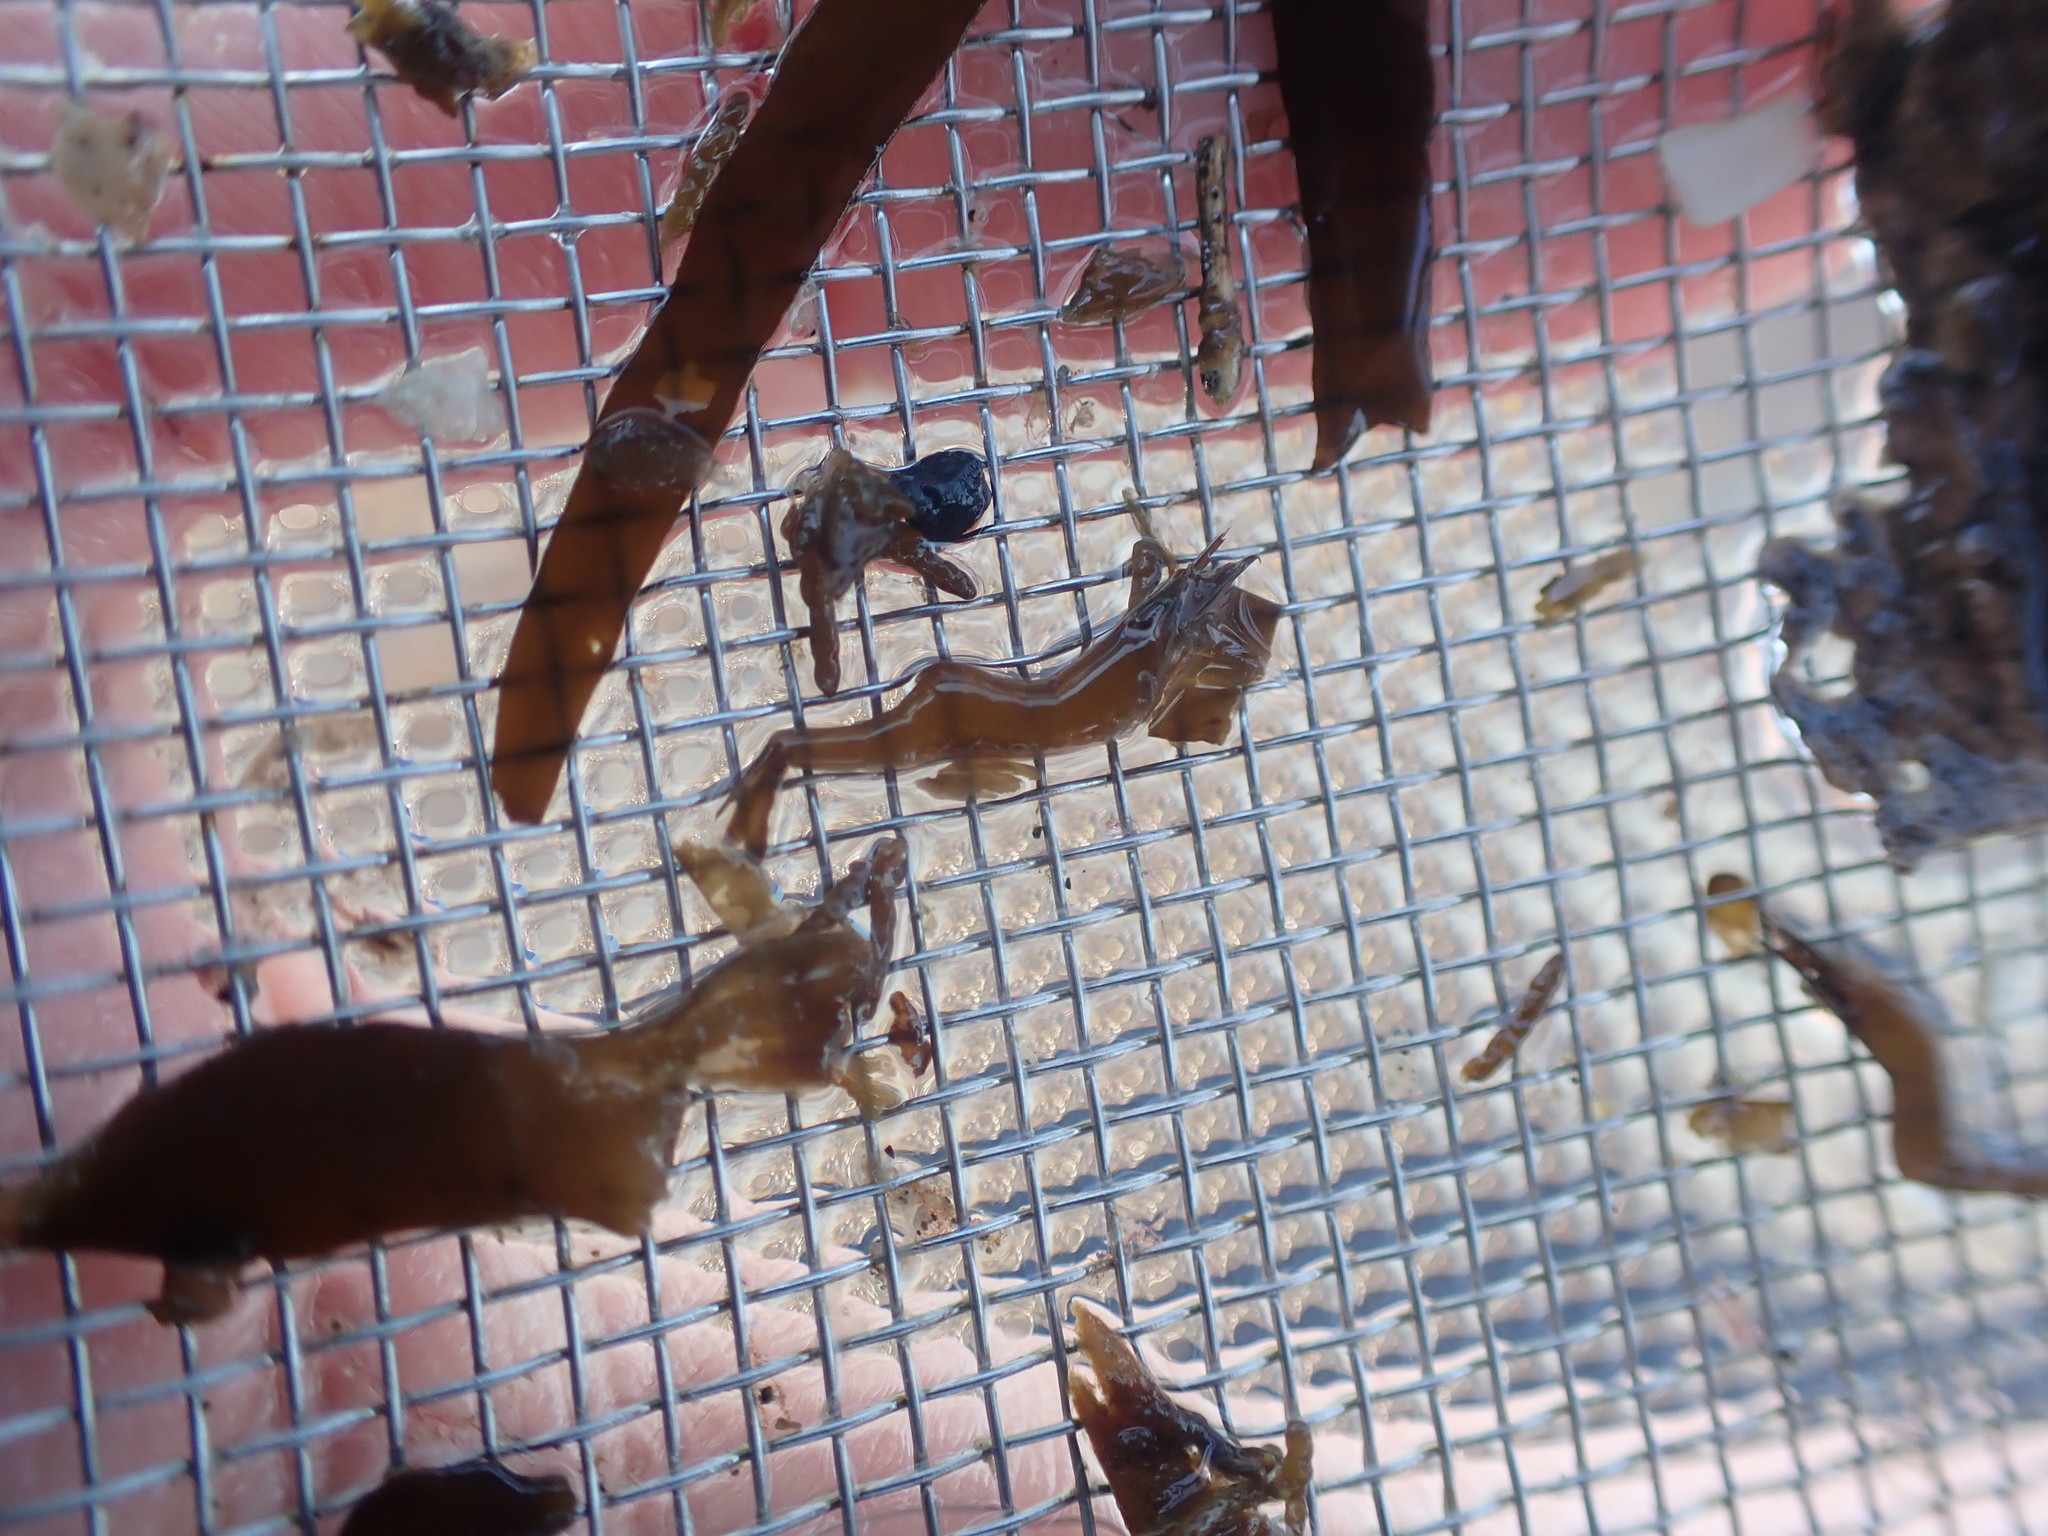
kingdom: Animalia
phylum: Arthropoda
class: Malacostraca
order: Decapoda
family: Hippolytidae
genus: Hippolyte
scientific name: Hippolyte bifidirostris
